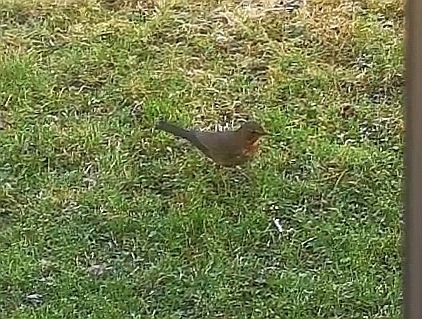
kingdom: Animalia
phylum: Chordata
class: Aves
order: Passeriformes
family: Turdidae
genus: Turdus
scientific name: Turdus merula
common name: Common blackbird
